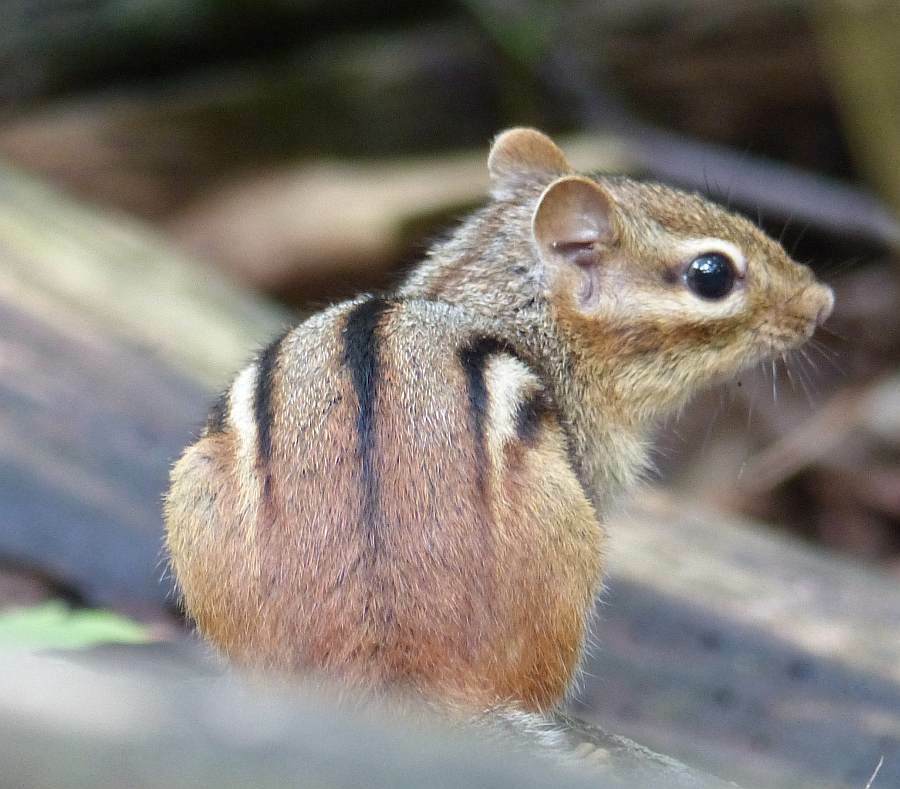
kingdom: Animalia
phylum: Chordata
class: Mammalia
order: Rodentia
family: Sciuridae
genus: Tamias
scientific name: Tamias striatus
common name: Eastern chipmunk
